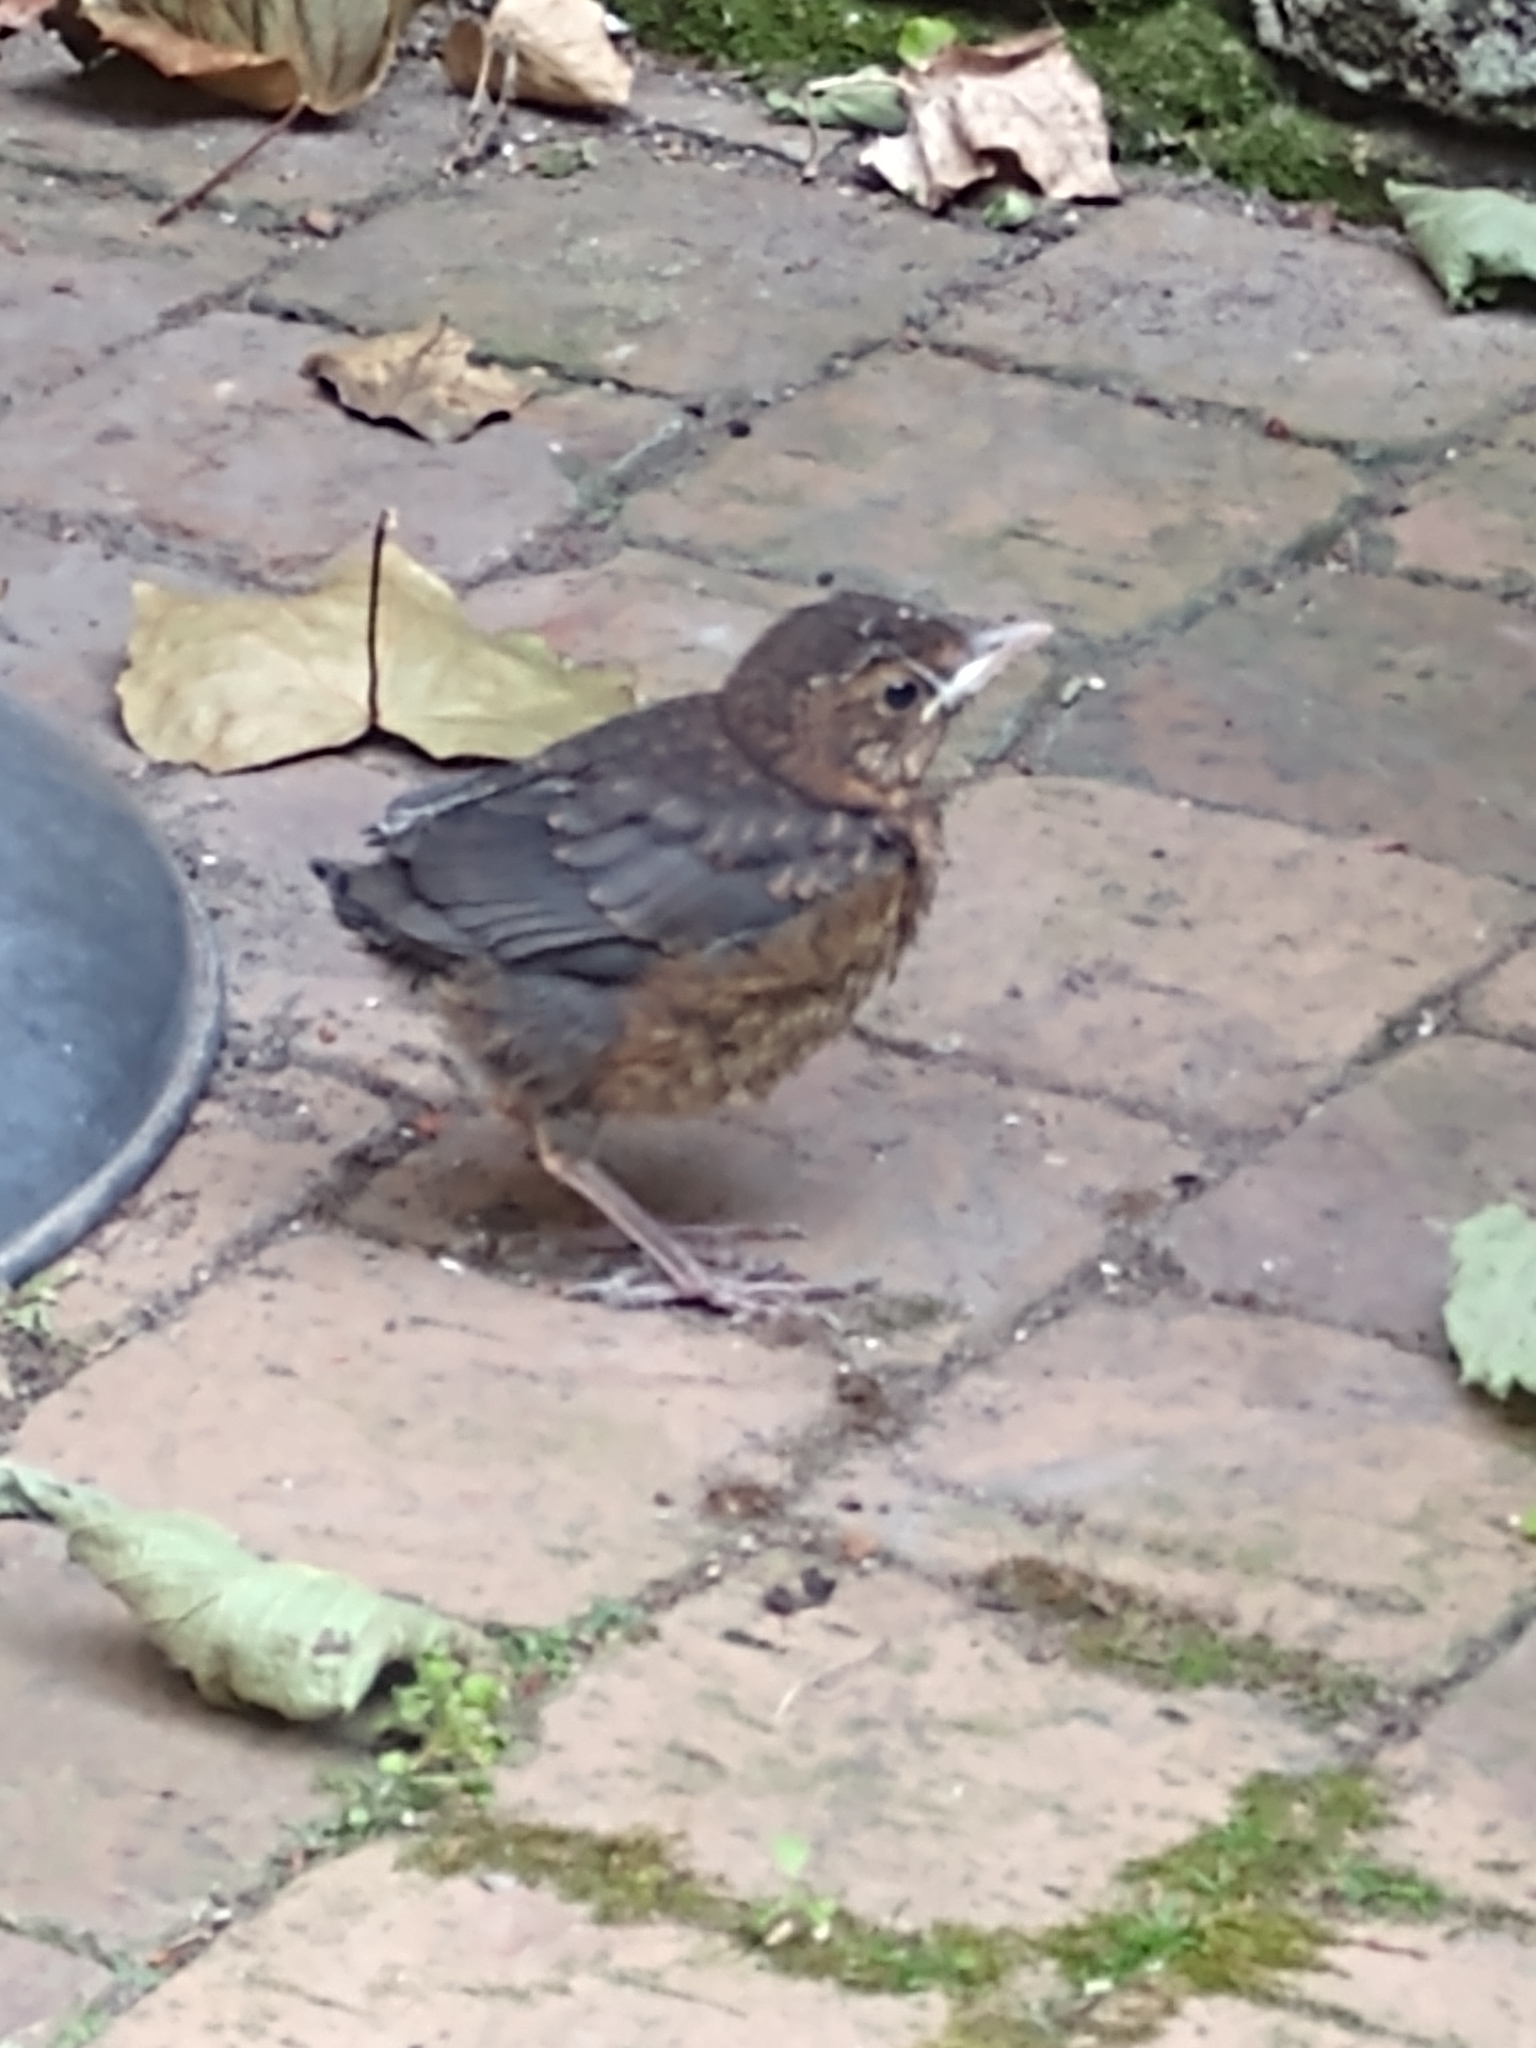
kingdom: Animalia
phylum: Chordata
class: Aves
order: Passeriformes
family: Turdidae
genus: Turdus
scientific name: Turdus merula
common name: Common blackbird
